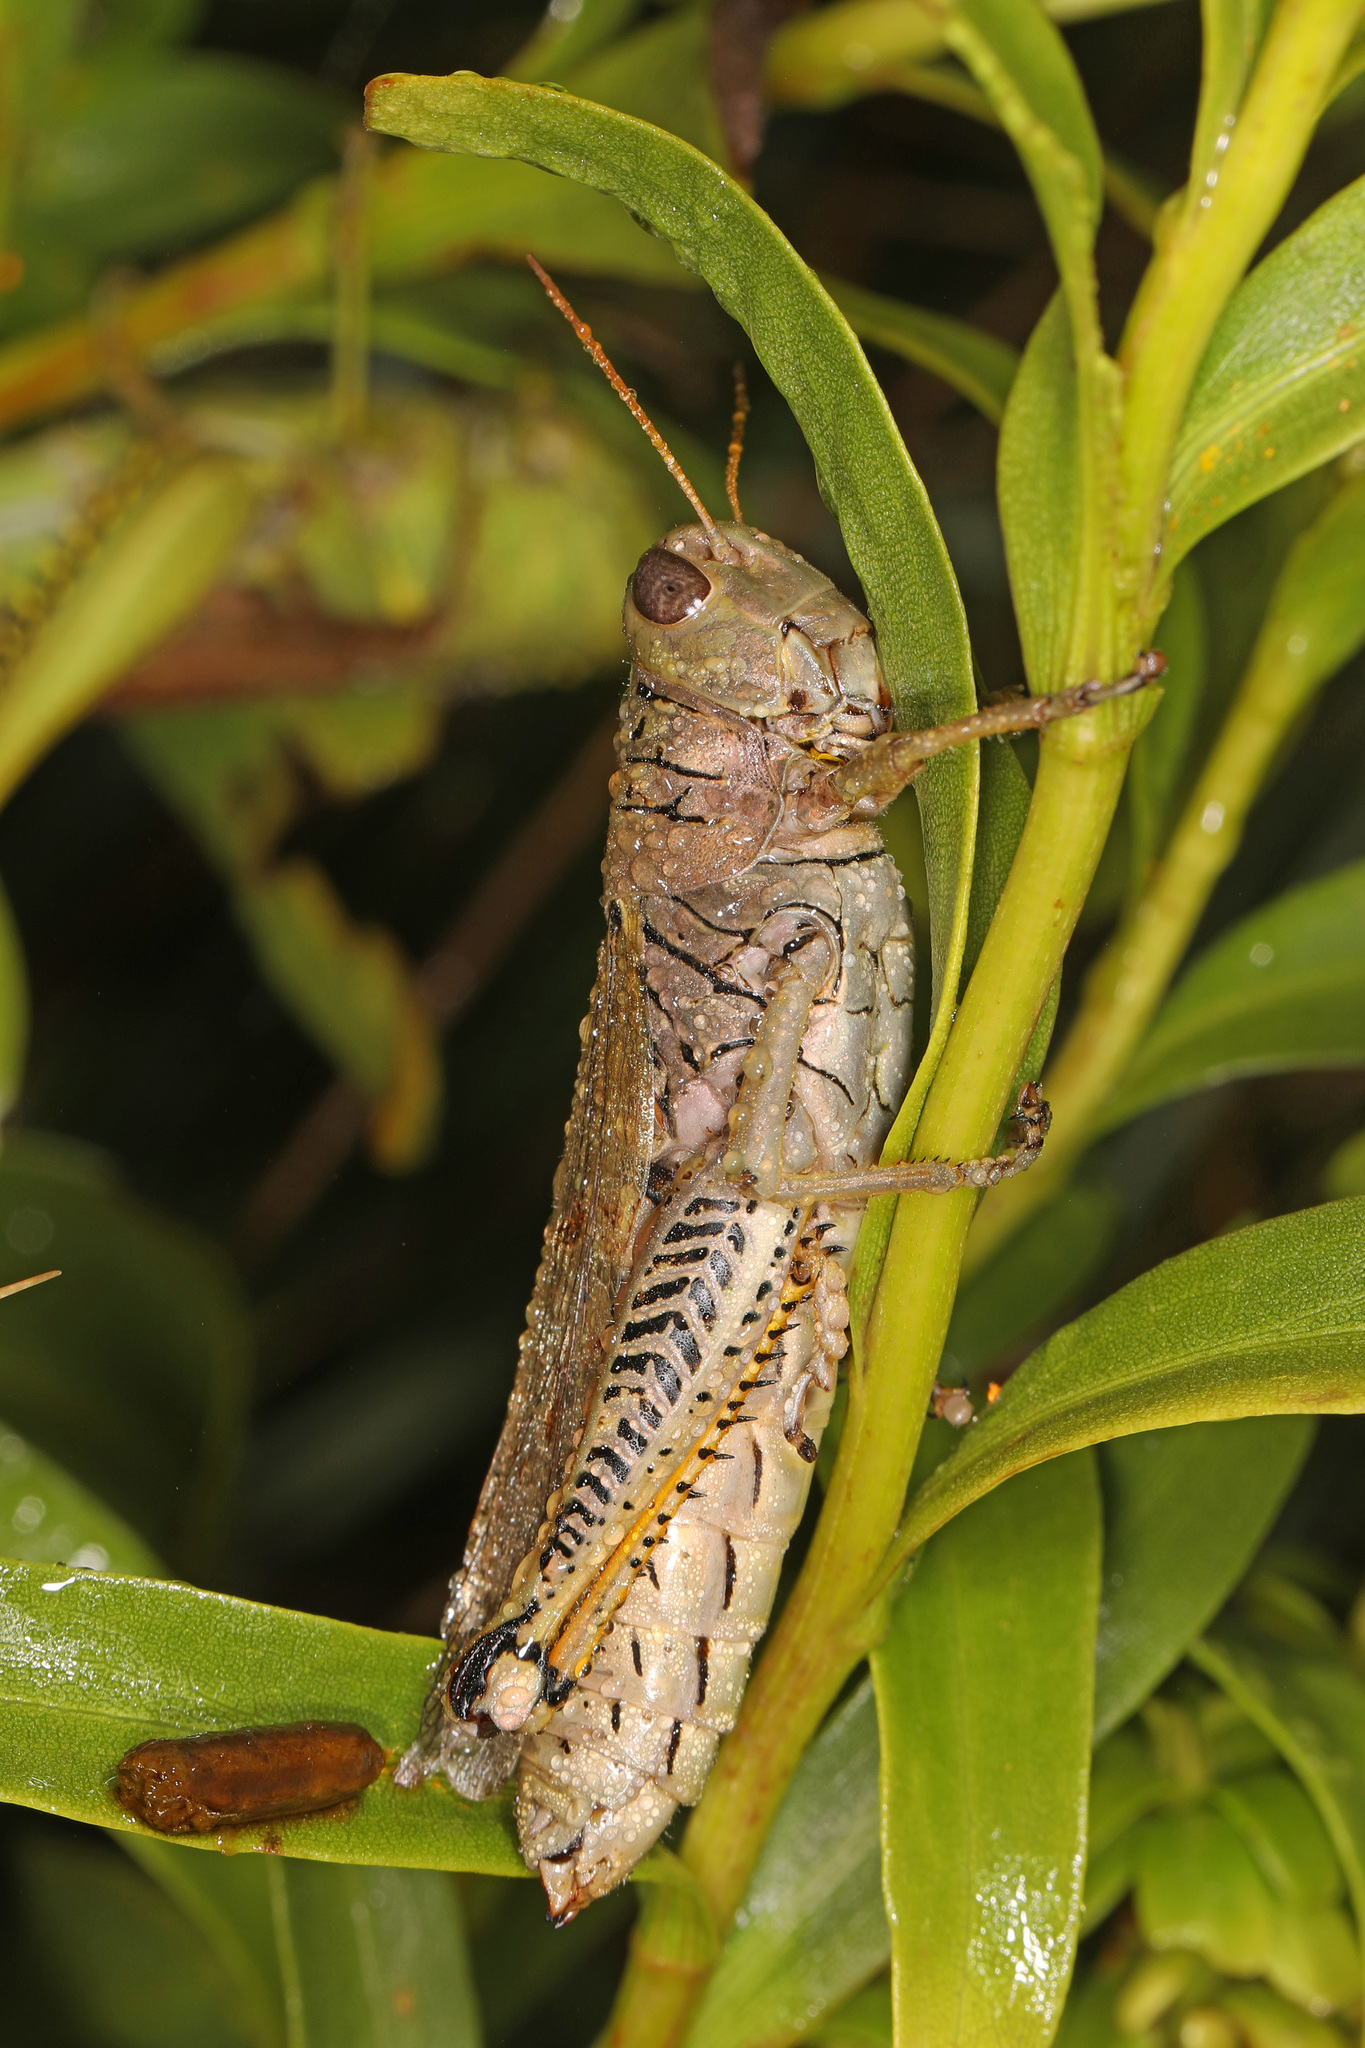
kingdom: Animalia
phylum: Arthropoda
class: Insecta
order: Orthoptera
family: Acrididae
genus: Melanoplus
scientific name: Melanoplus differentialis
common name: Differential grasshopper
